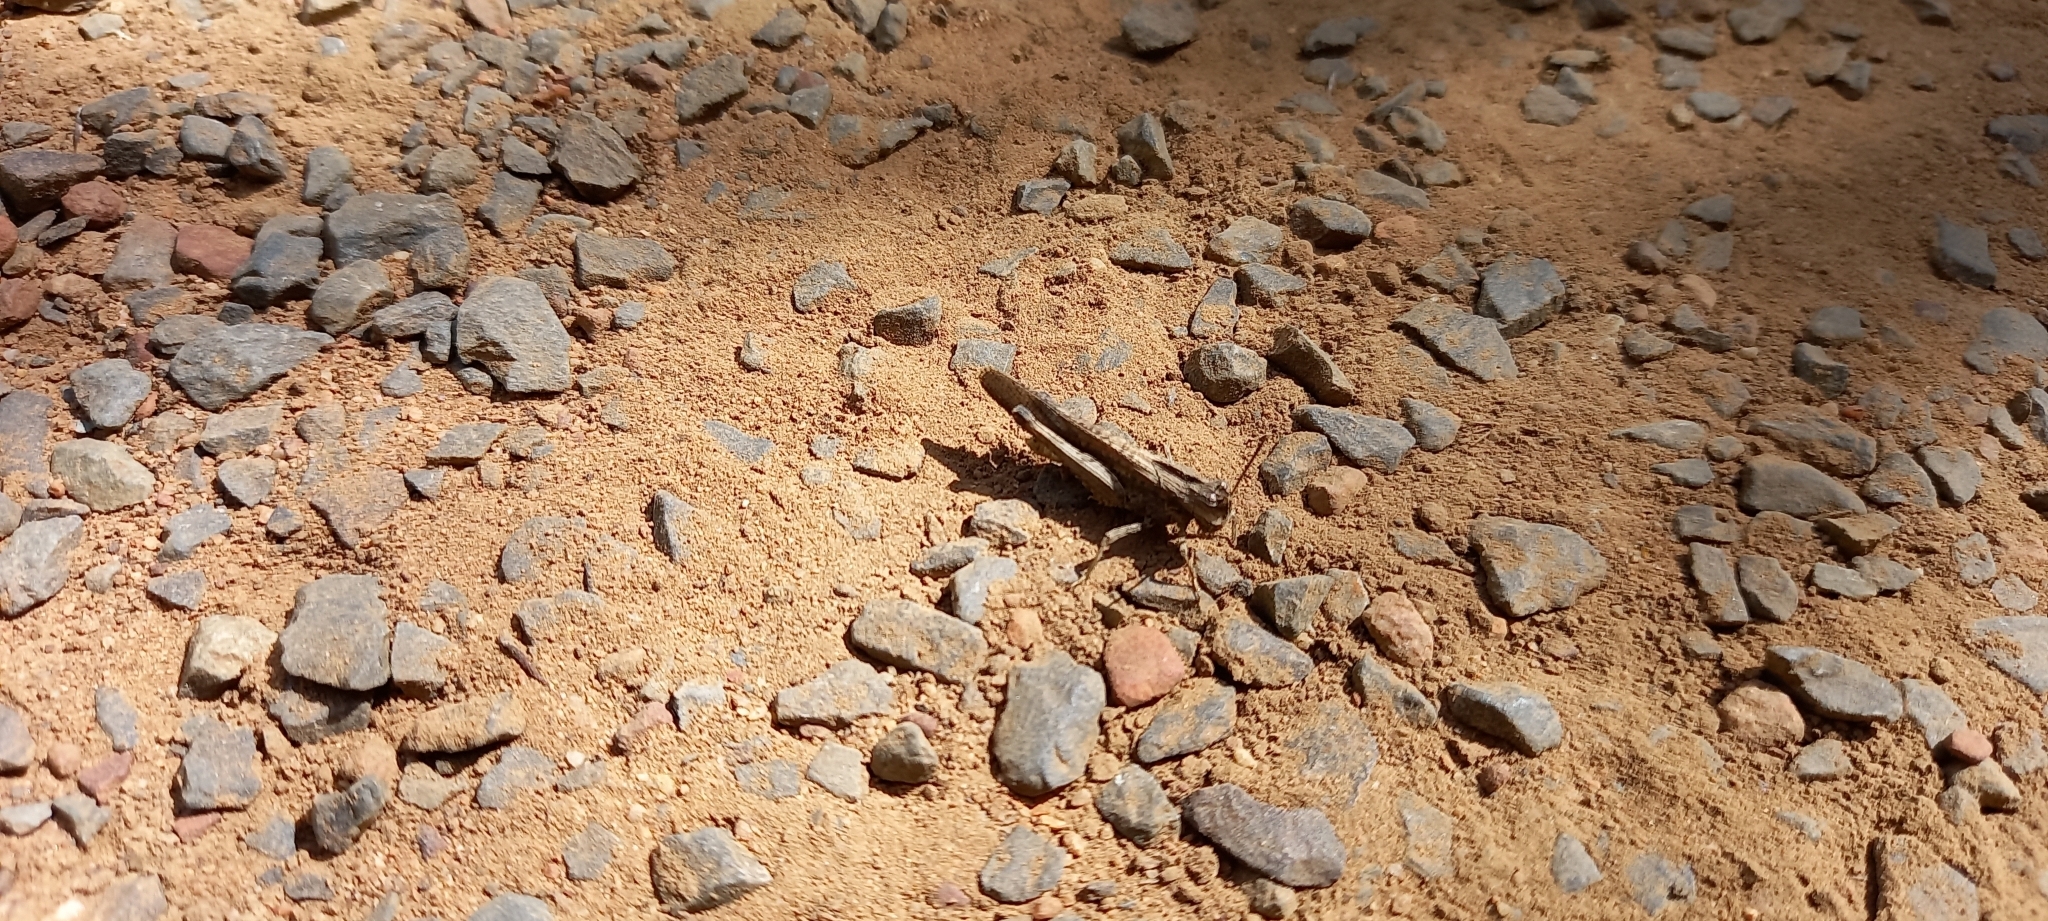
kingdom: Animalia
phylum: Arthropoda
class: Insecta
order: Orthoptera
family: Acrididae
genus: Morphacris
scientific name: Morphacris fasciata
